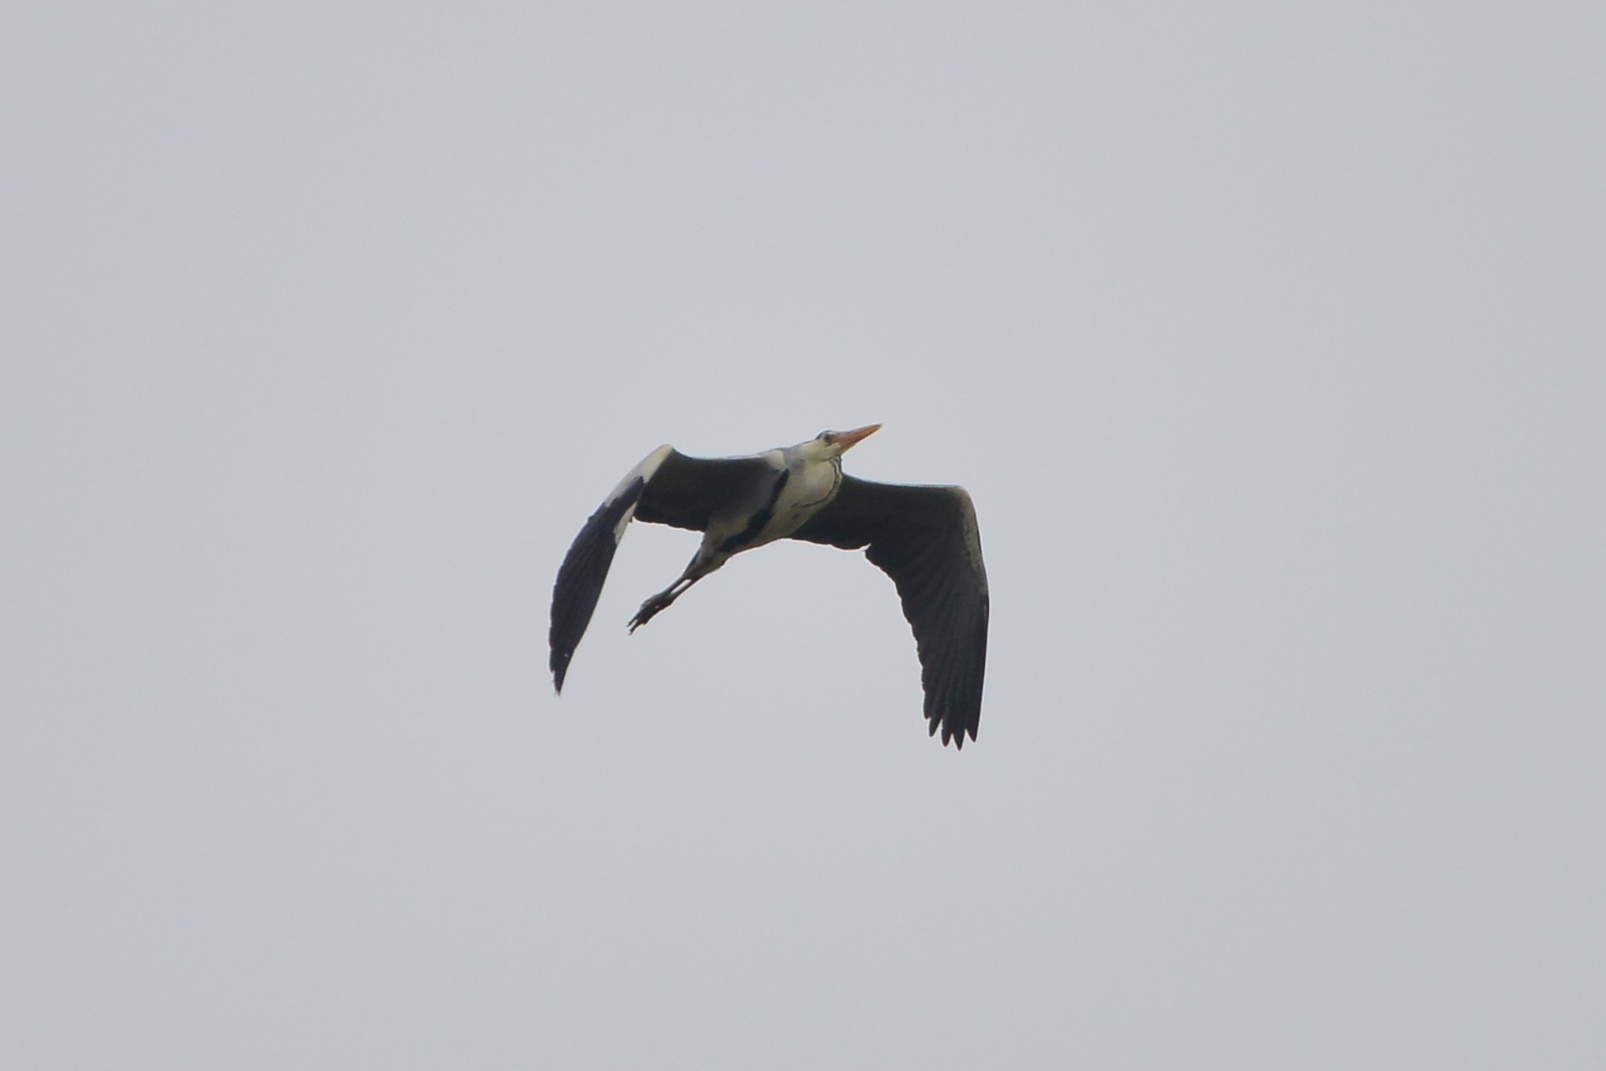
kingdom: Animalia
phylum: Chordata
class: Aves
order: Pelecaniformes
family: Ardeidae
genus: Ardea
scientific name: Ardea cinerea
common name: Grey heron
